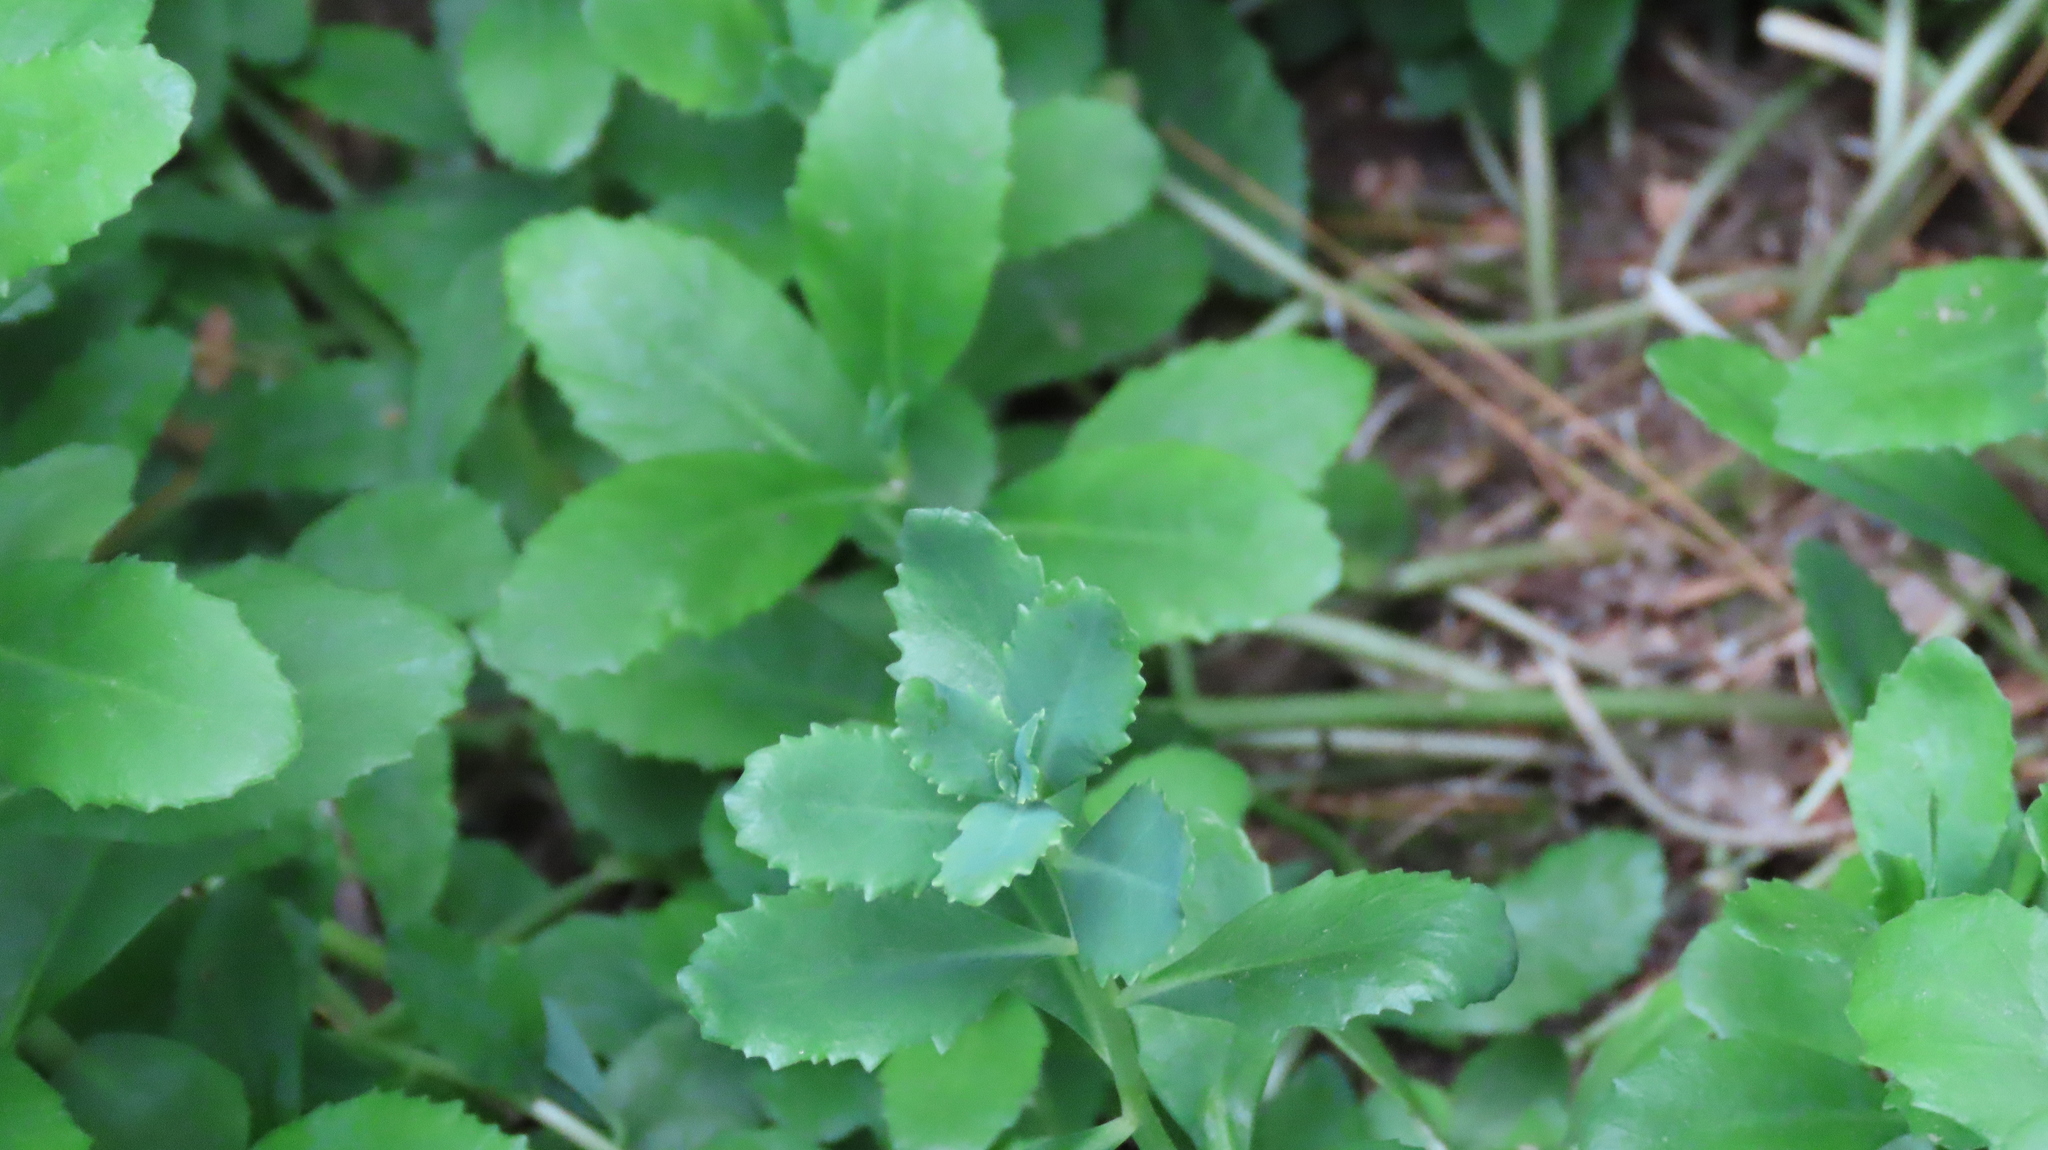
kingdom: Plantae
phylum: Tracheophyta
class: Magnoliopsida
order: Saxifragales
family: Crassulaceae
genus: Hylotelephium
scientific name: Hylotelephium telephium
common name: Live-forever
